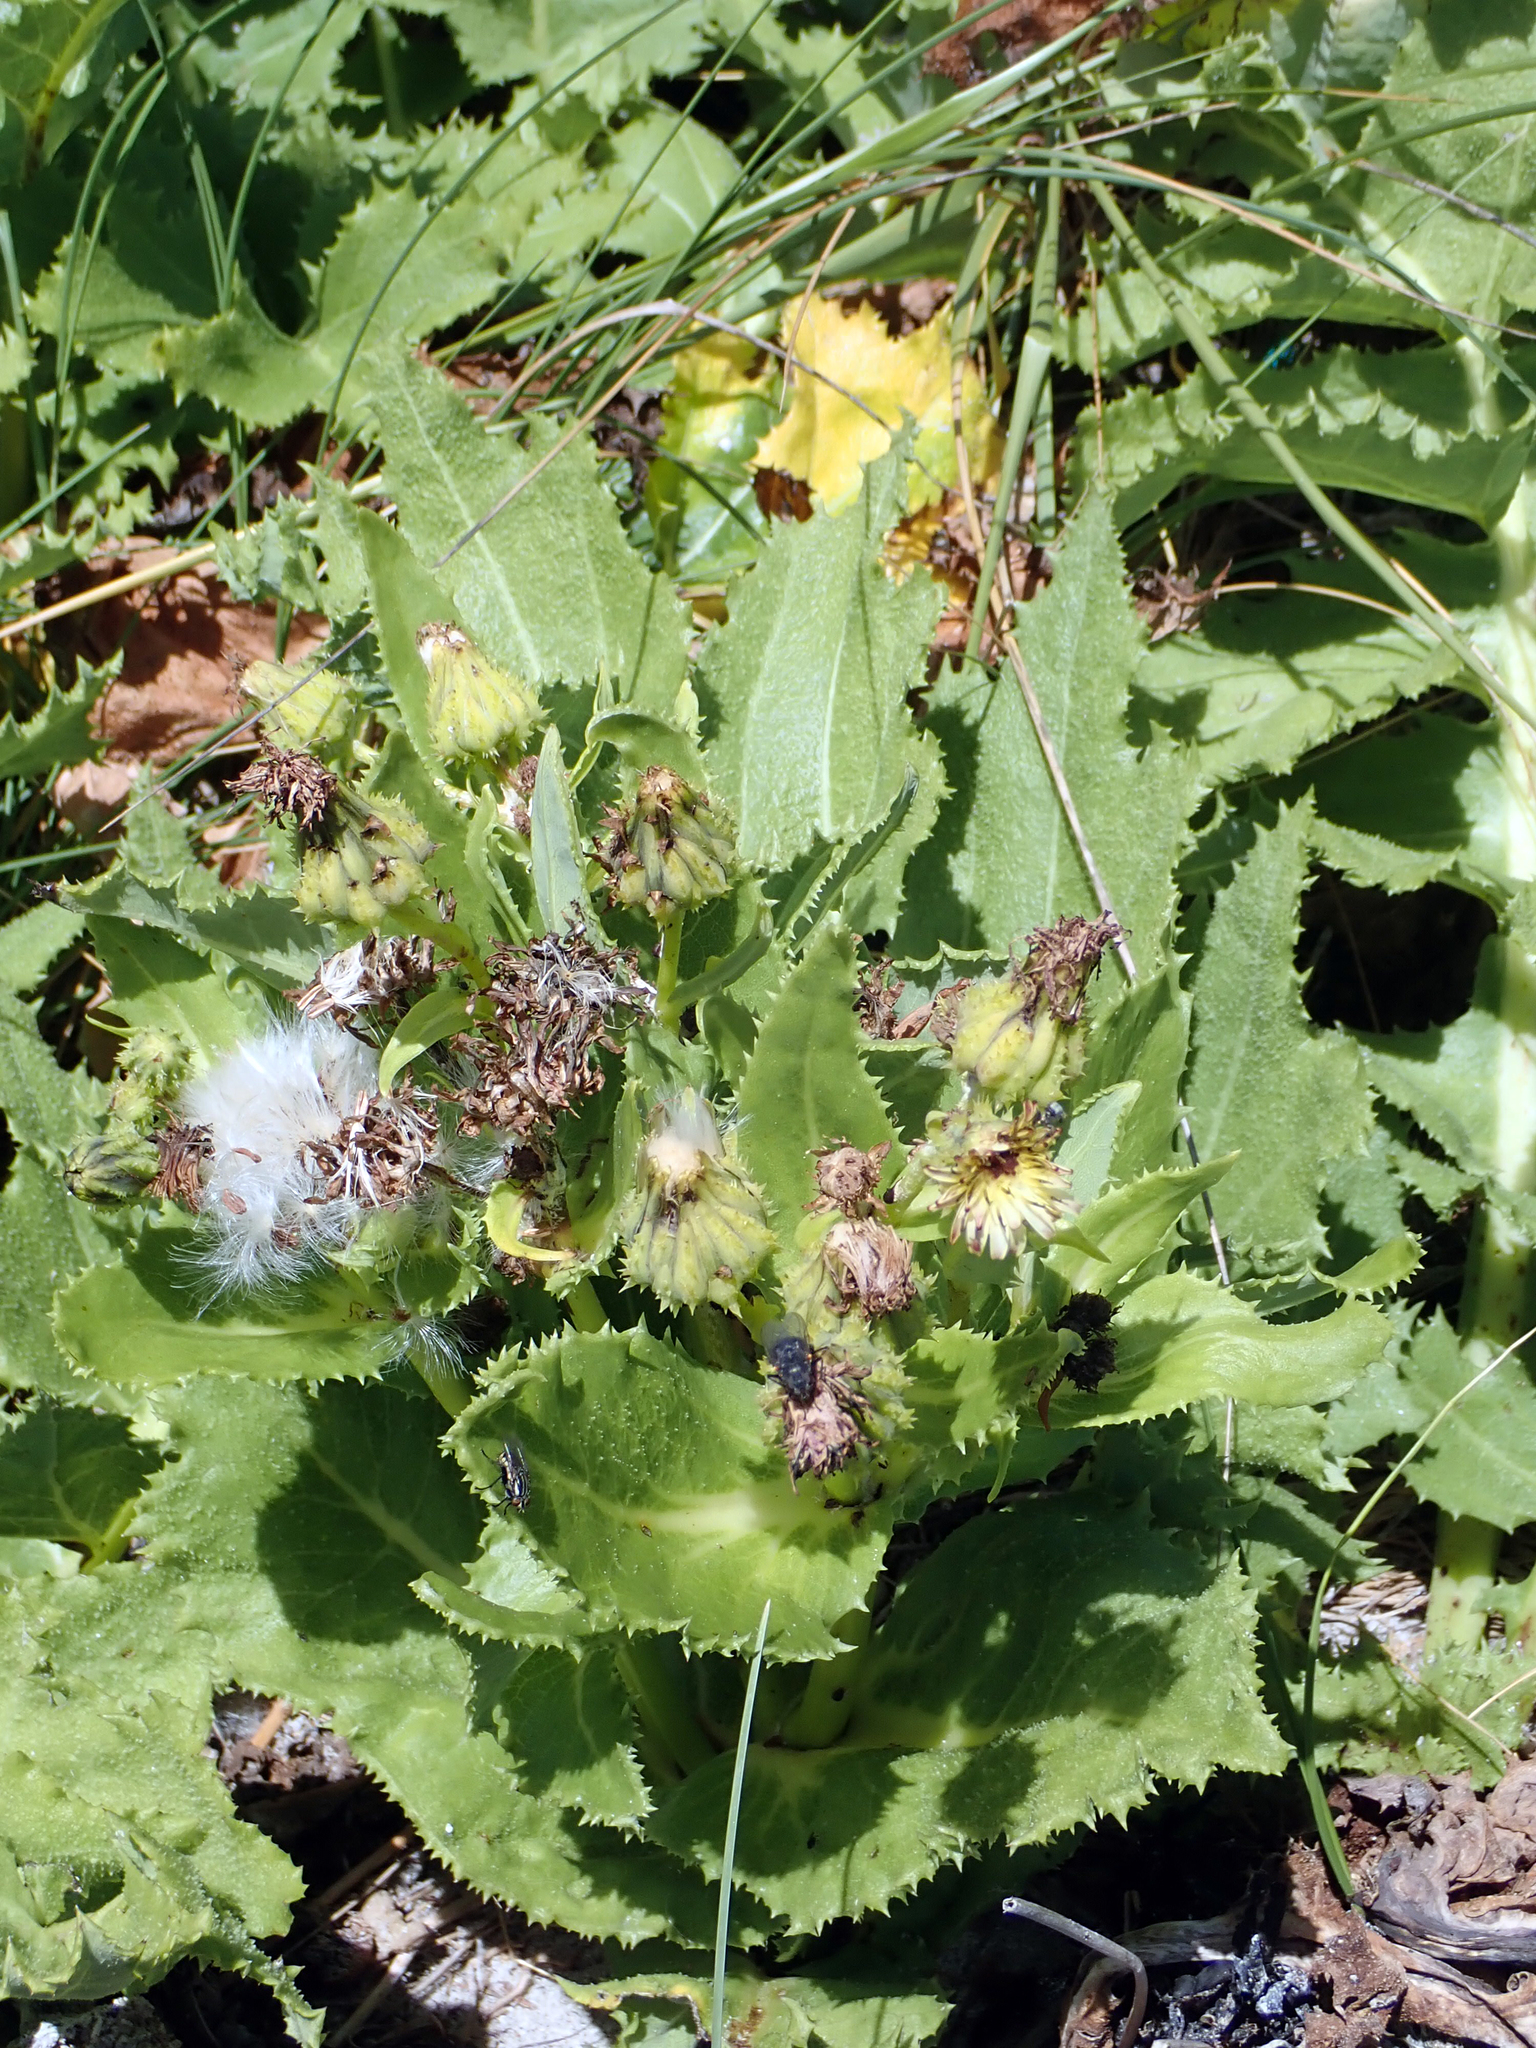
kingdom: Plantae
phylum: Tracheophyta
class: Magnoliopsida
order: Asterales
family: Asteraceae
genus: Sonchus
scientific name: Sonchus grandifolius
